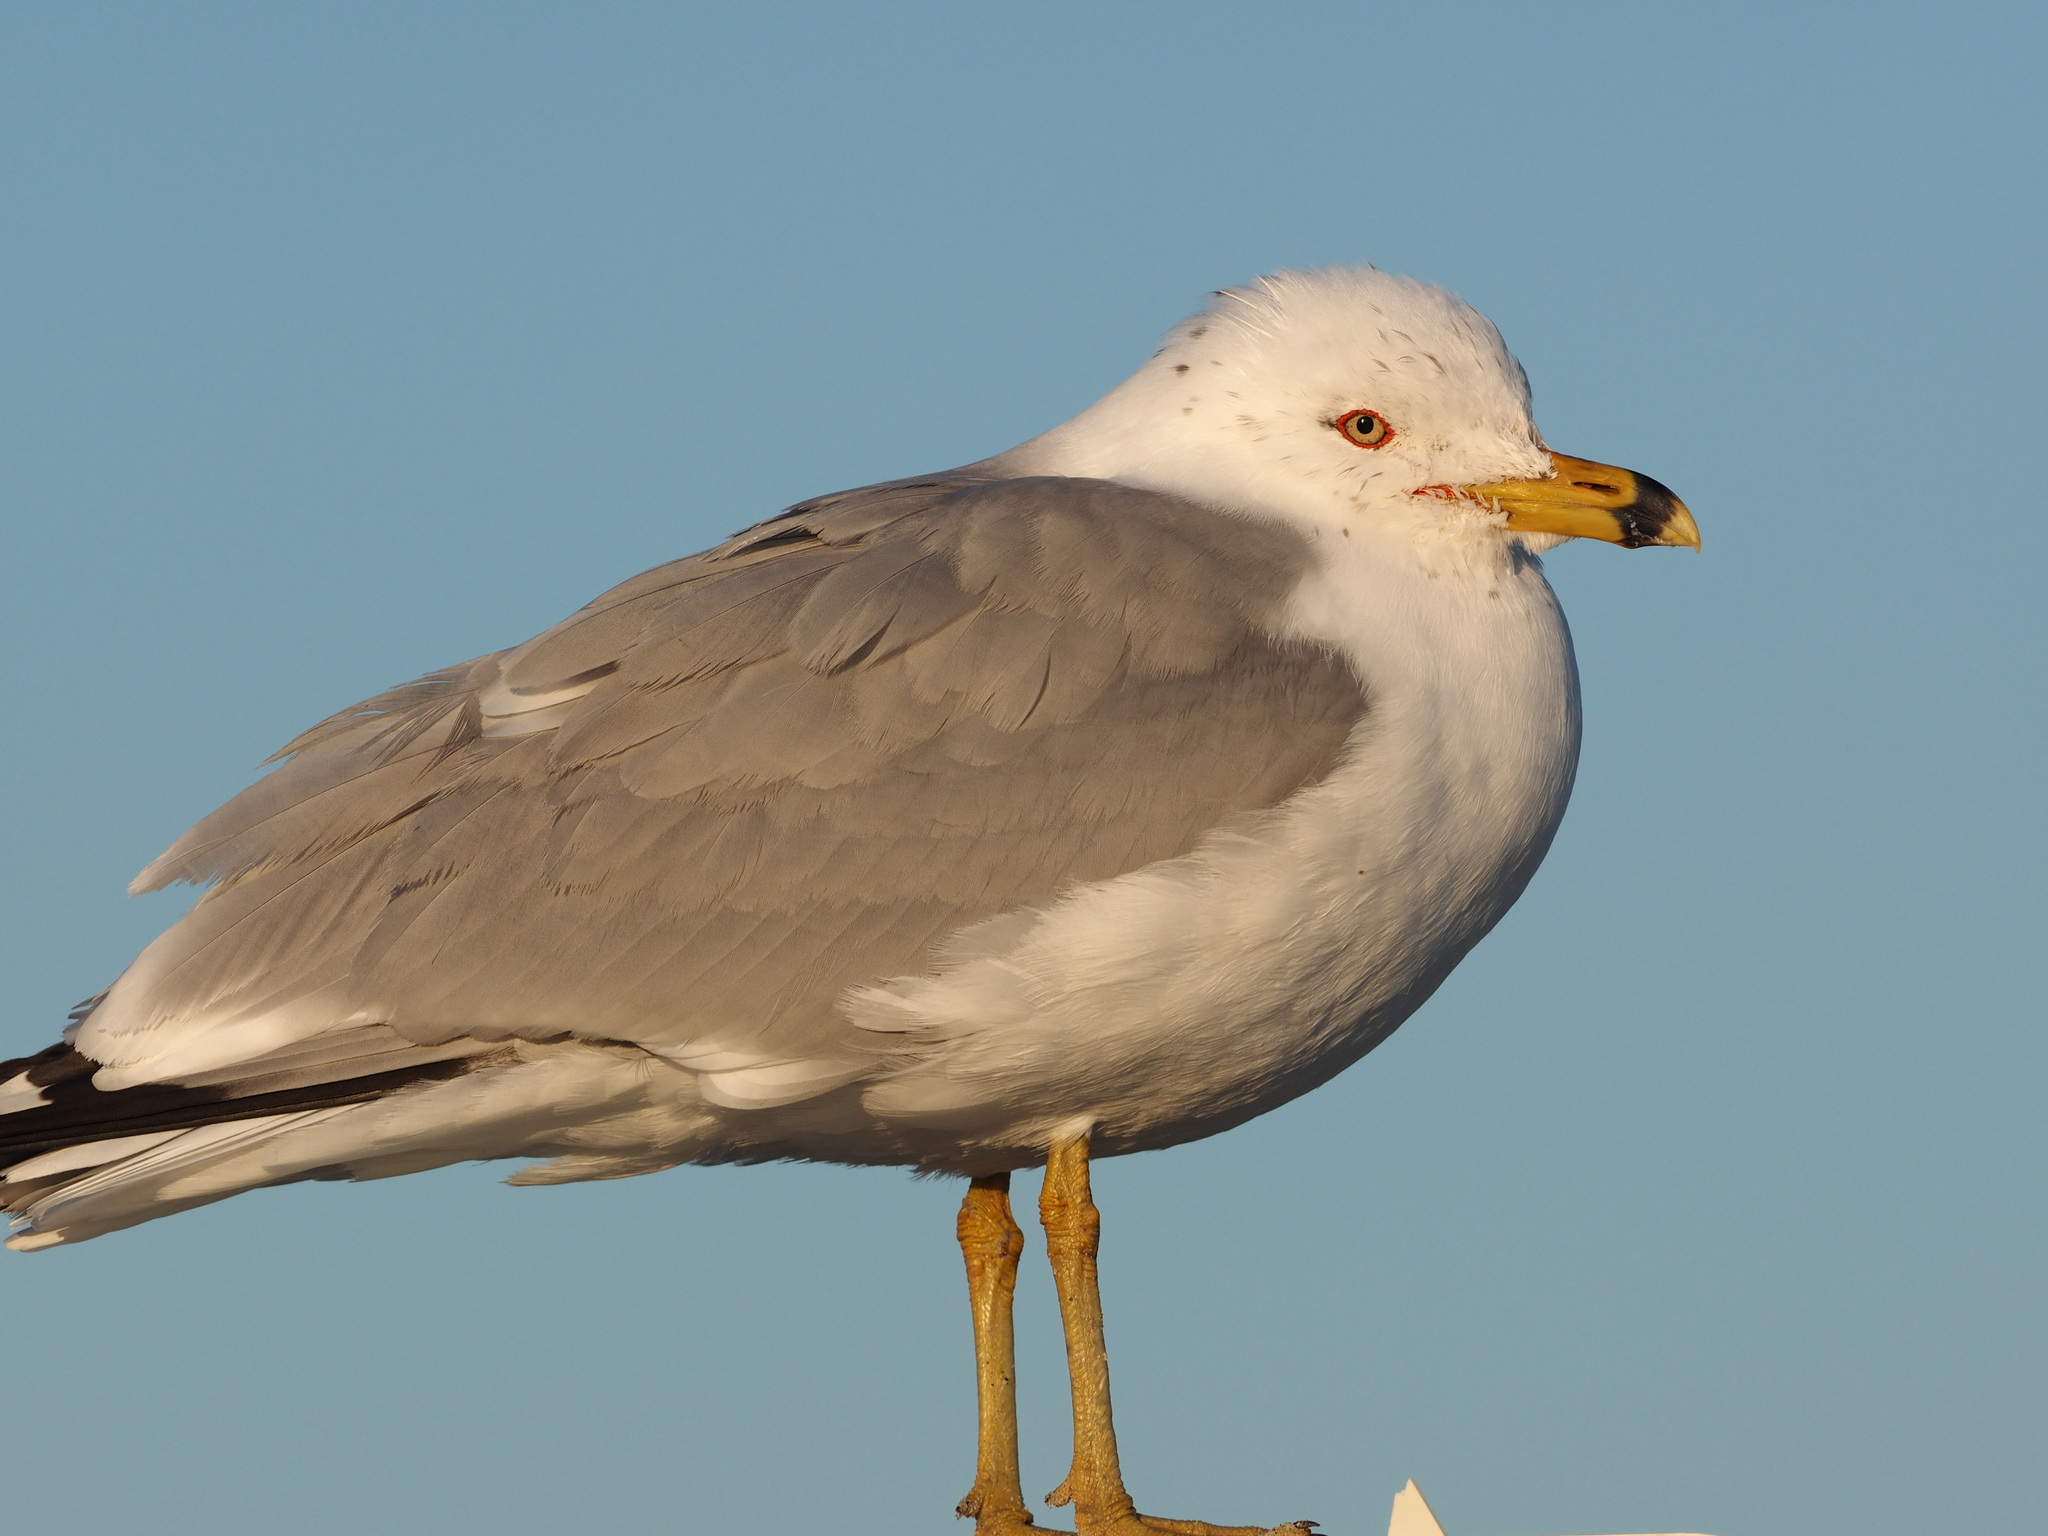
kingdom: Animalia
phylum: Chordata
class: Aves
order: Charadriiformes
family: Laridae
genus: Larus
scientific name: Larus delawarensis
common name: Ring-billed gull
